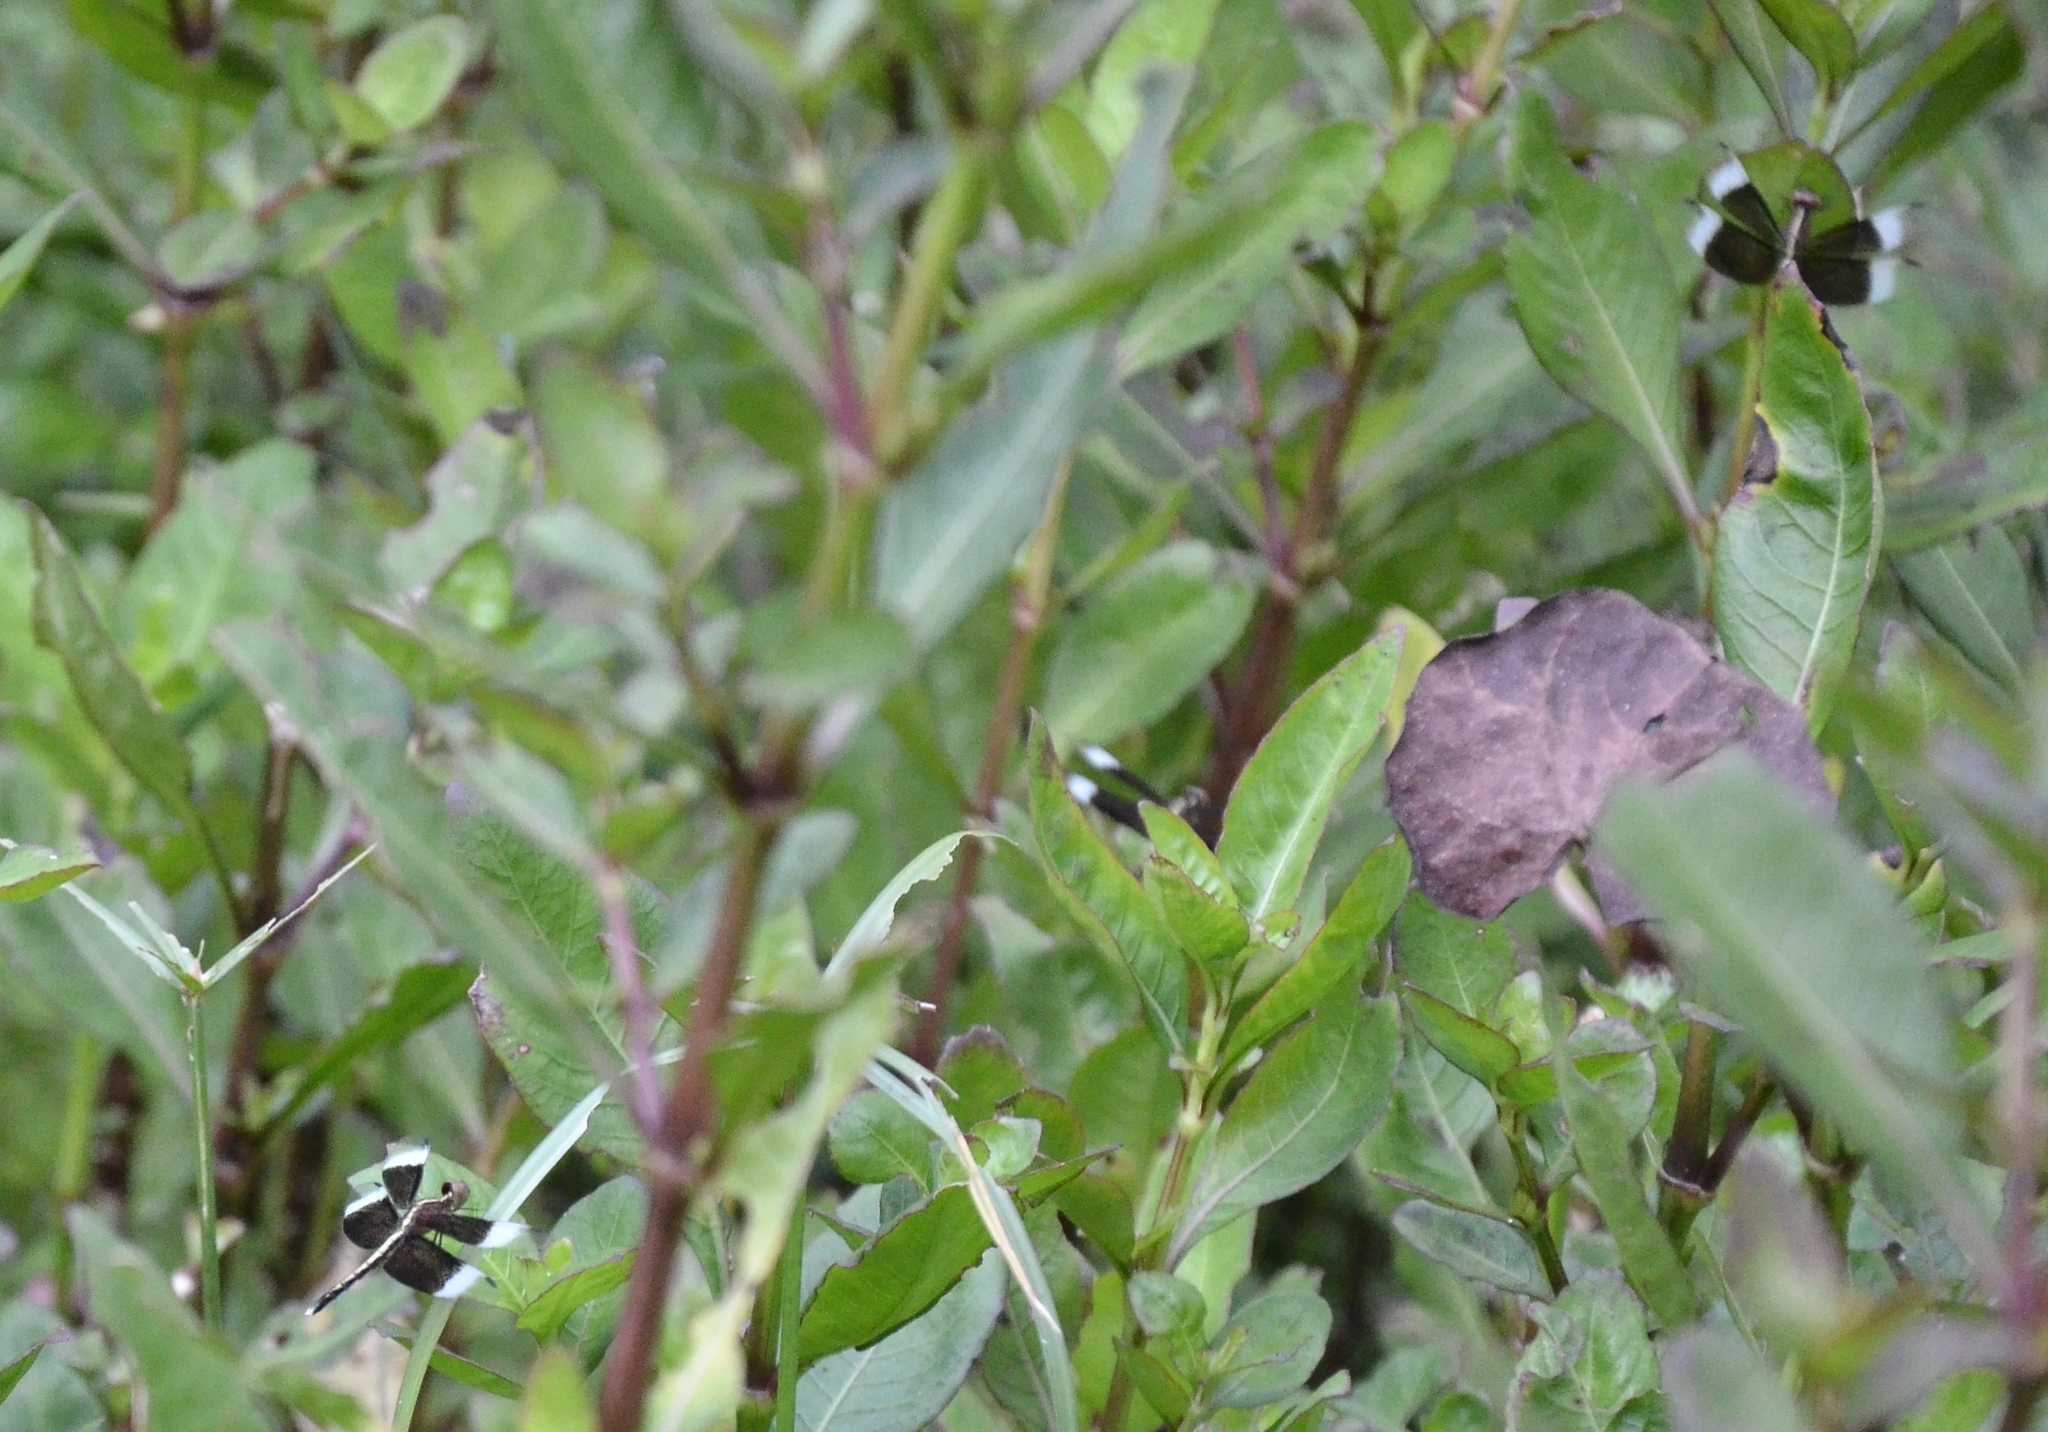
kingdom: Animalia
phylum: Arthropoda
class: Insecta
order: Odonata
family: Libellulidae
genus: Neurothemis
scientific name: Neurothemis tullia
